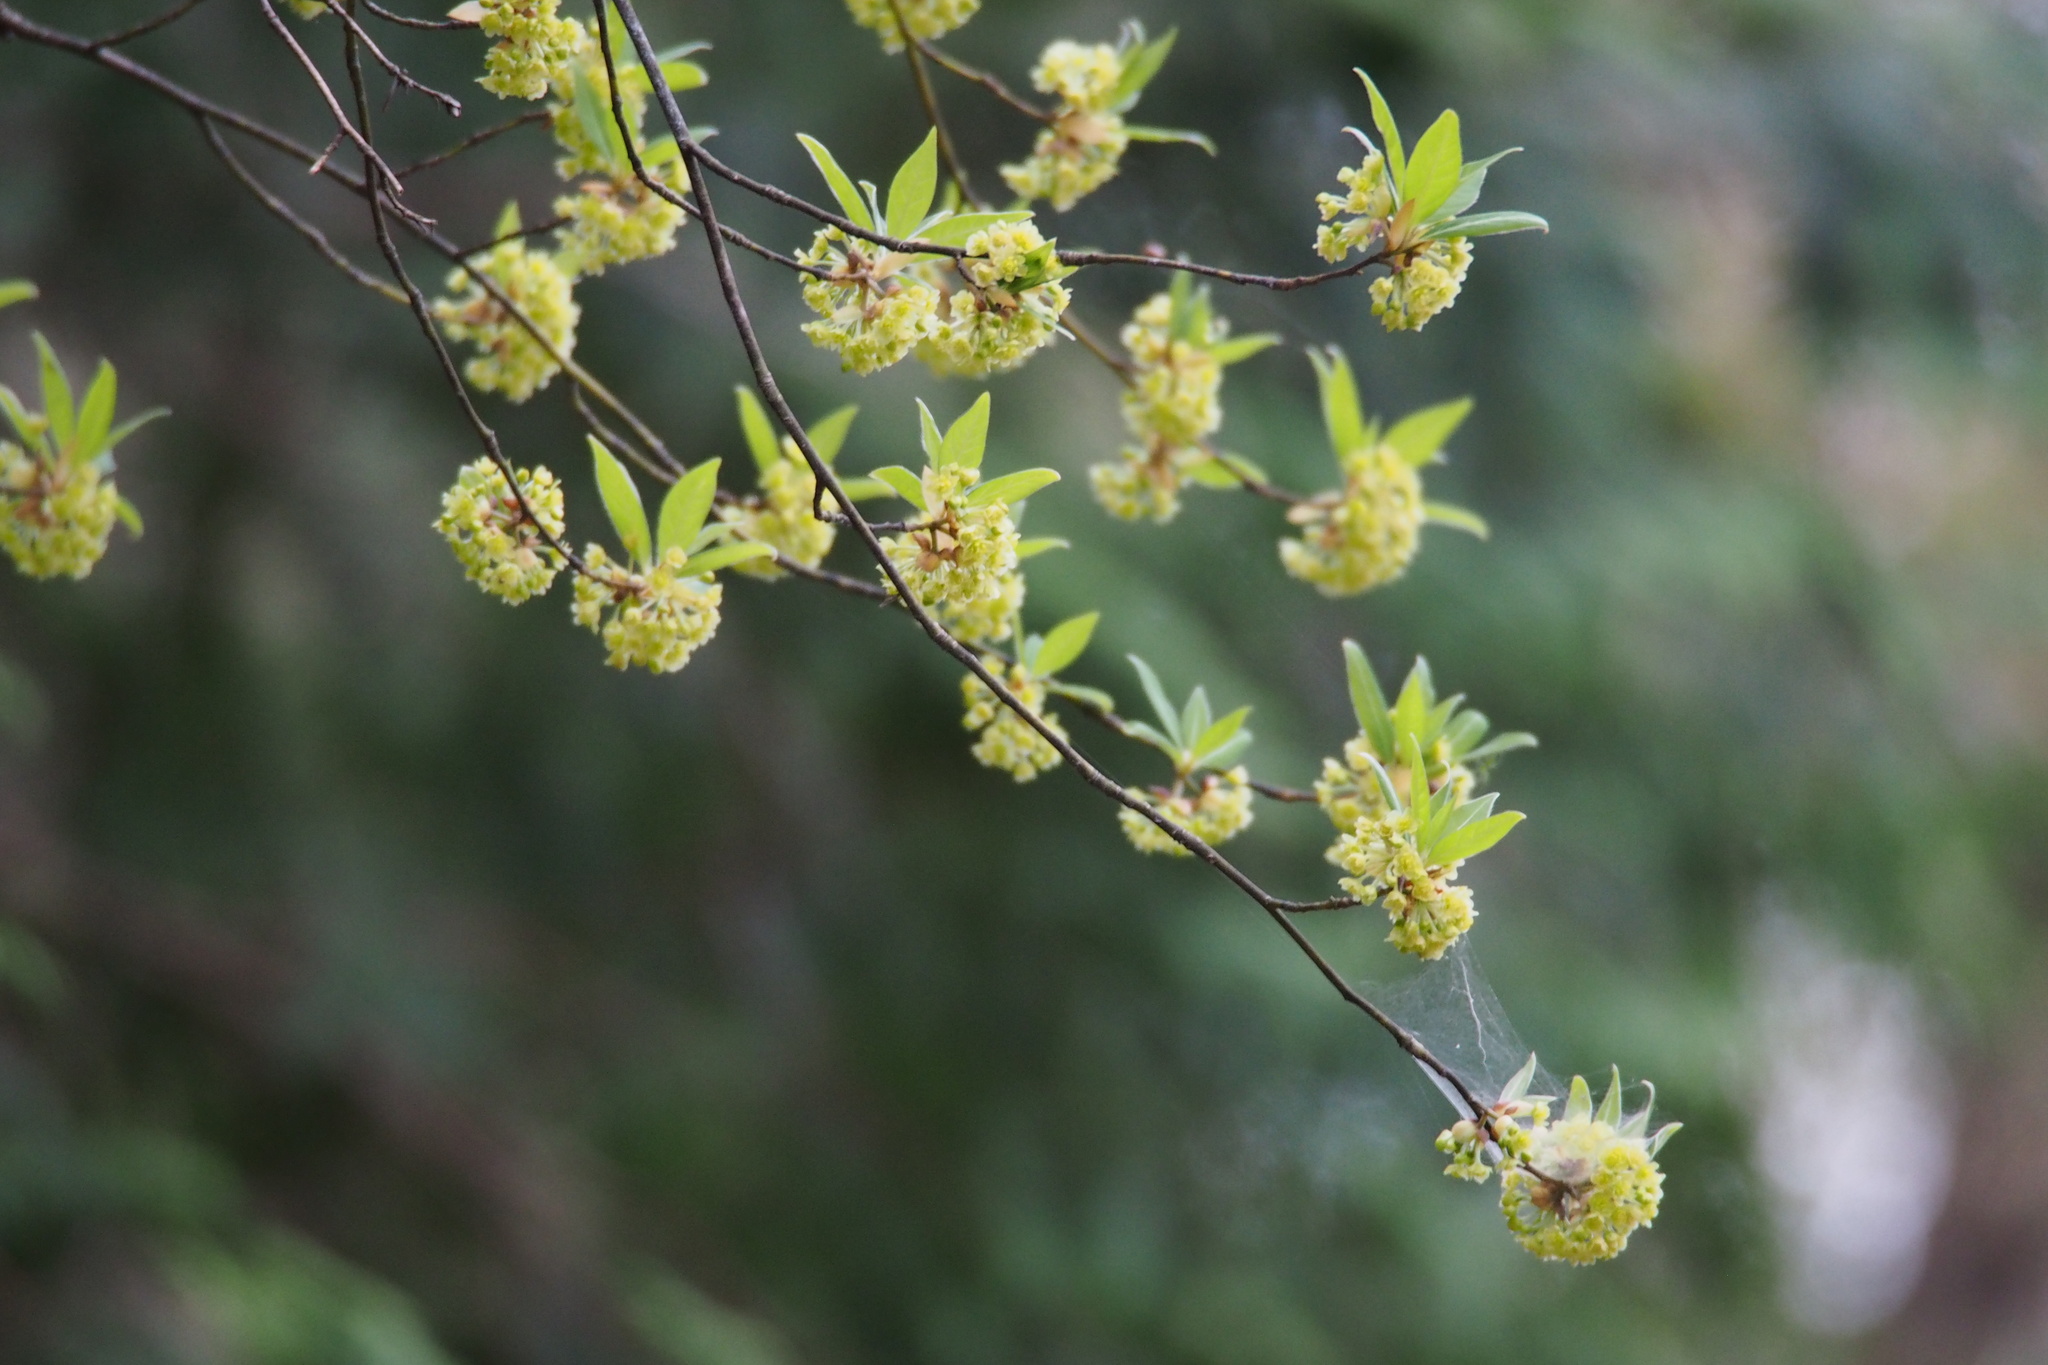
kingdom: Plantae
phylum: Tracheophyta
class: Magnoliopsida
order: Laurales
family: Lauraceae
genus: Lindera
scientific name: Lindera umbellata
